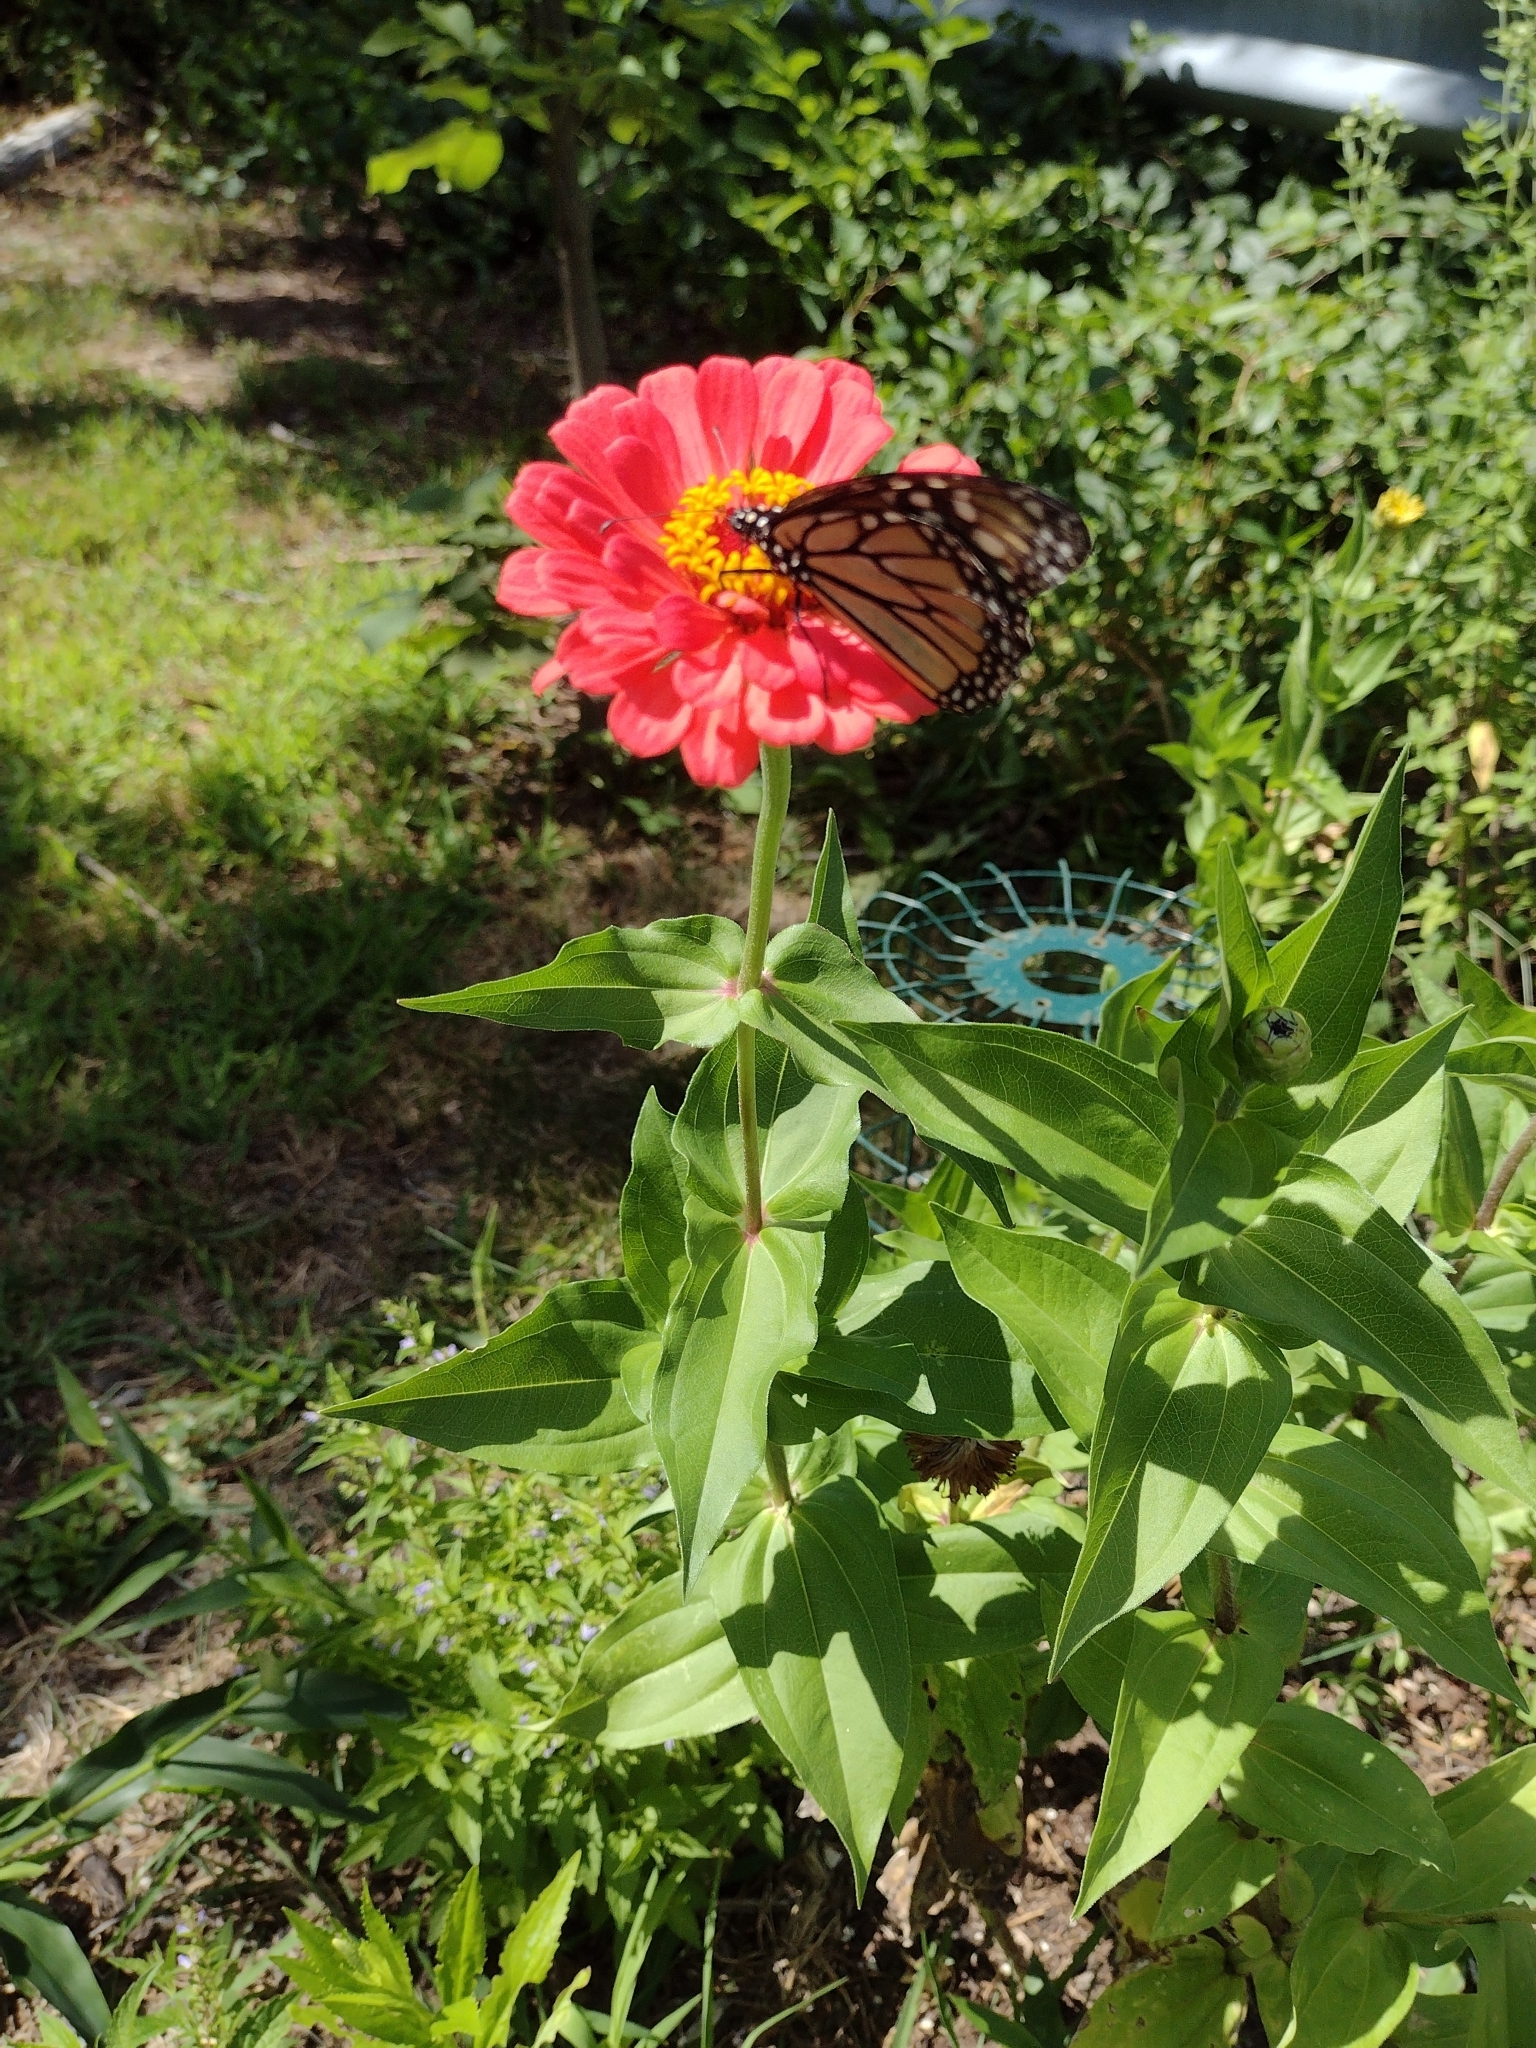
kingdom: Animalia
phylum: Arthropoda
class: Insecta
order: Lepidoptera
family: Nymphalidae
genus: Danaus
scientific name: Danaus plexippus
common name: Monarch
